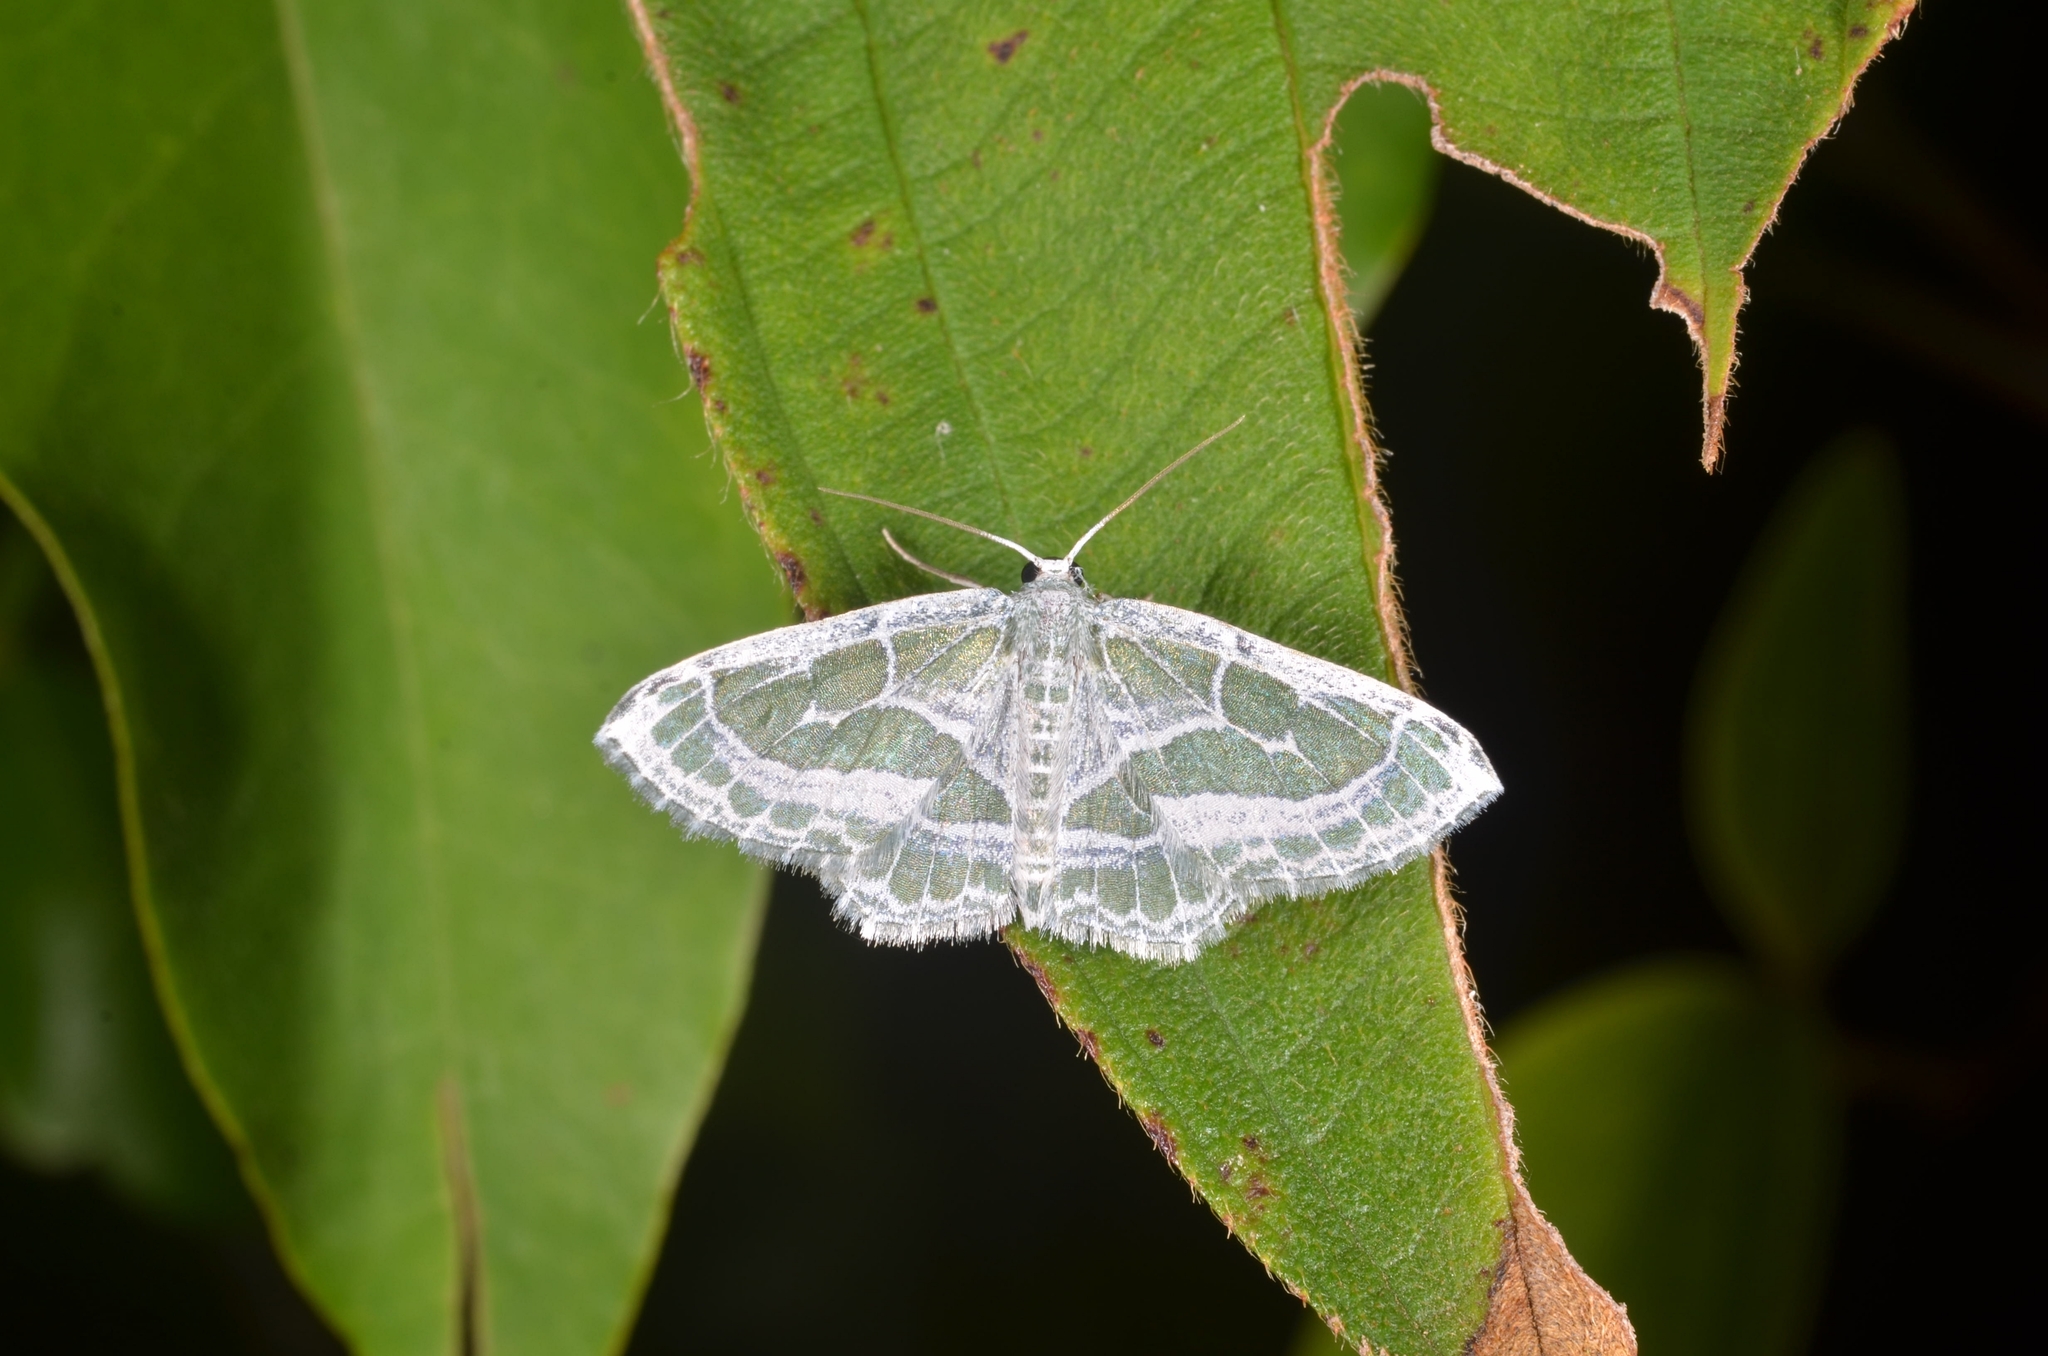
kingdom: Animalia
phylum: Arthropoda
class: Insecta
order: Lepidoptera
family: Geometridae
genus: Pseudeuchlora
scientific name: Pseudeuchlora kafebera
